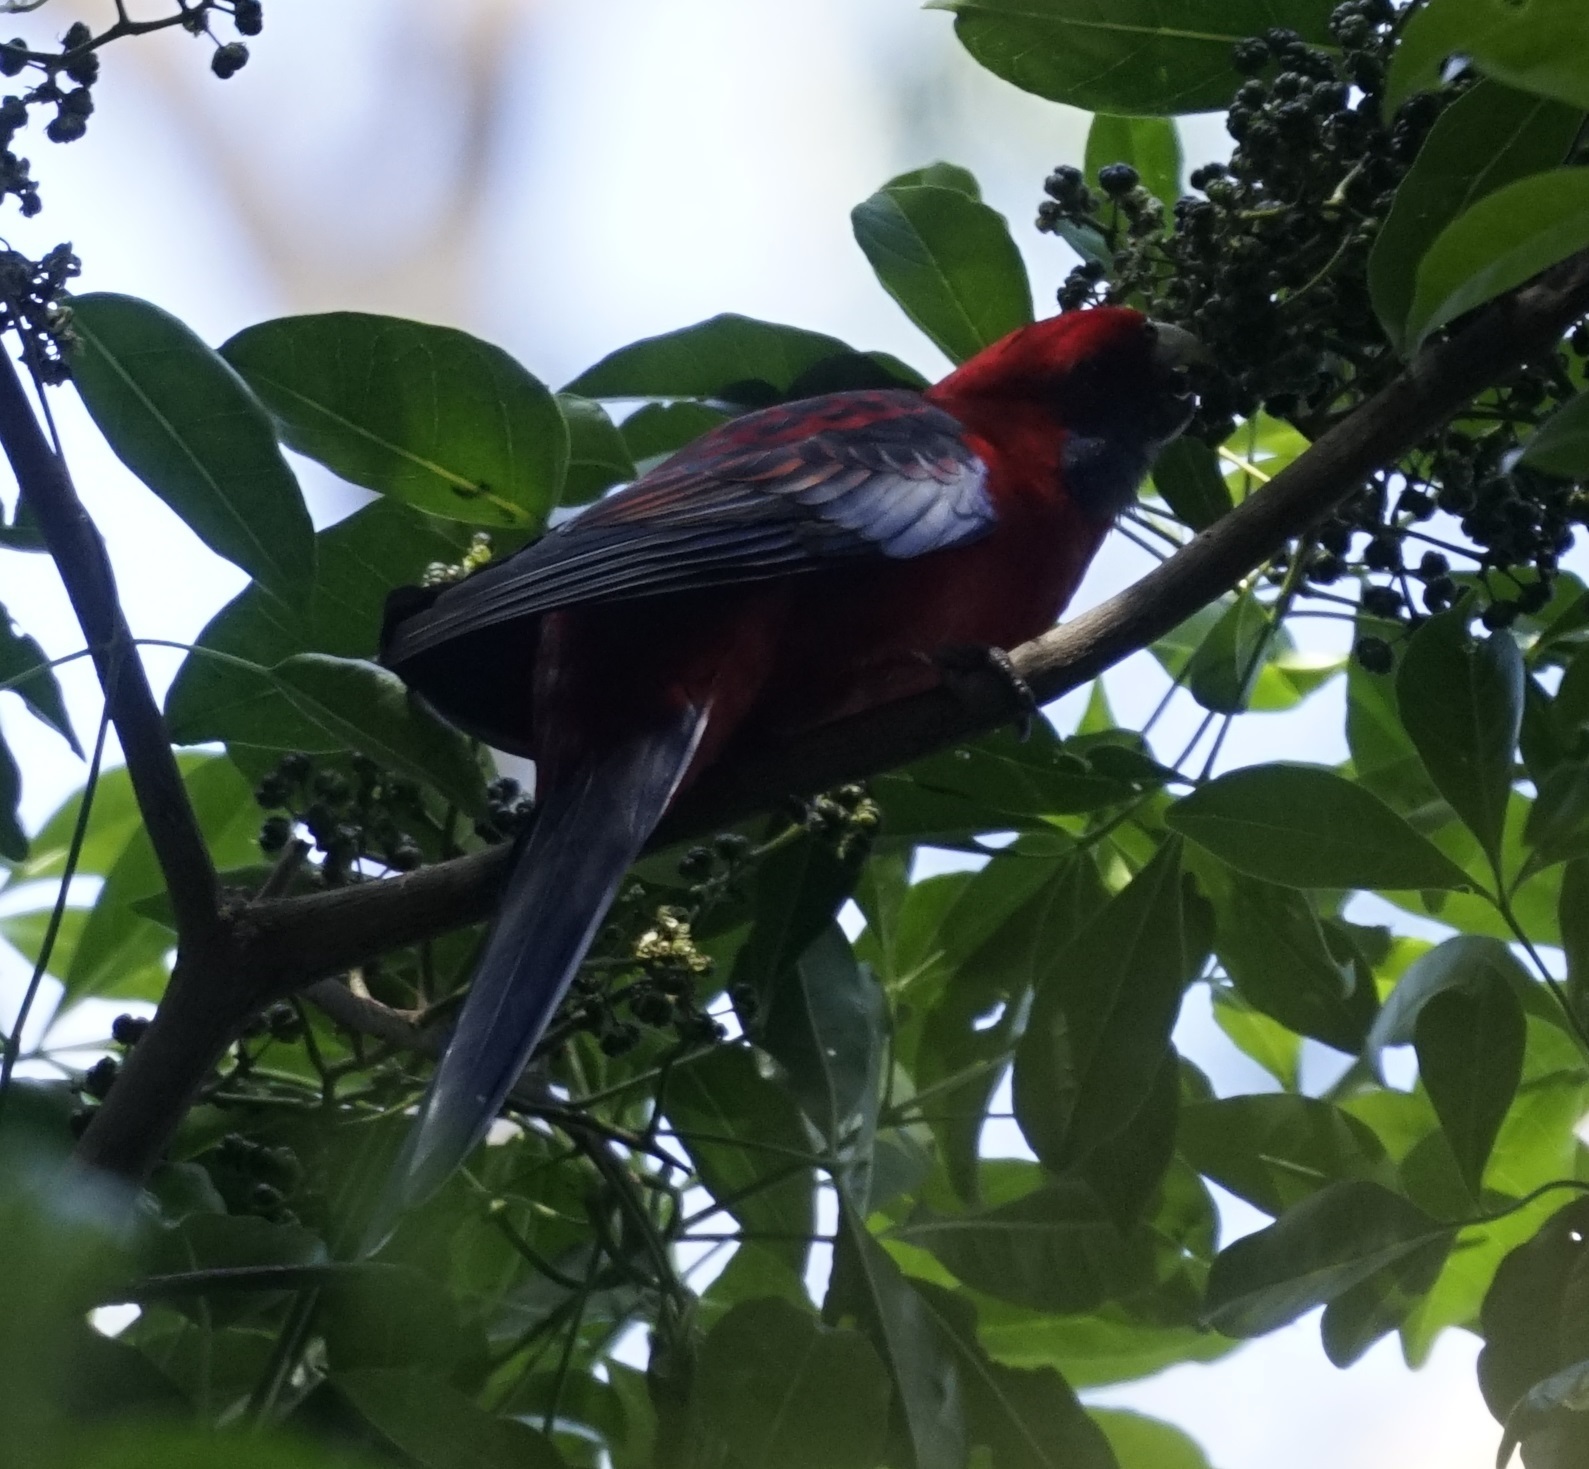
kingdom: Animalia
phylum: Chordata
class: Aves
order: Psittaciformes
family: Psittacidae
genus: Platycercus
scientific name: Platycercus elegans
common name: Crimson rosella
